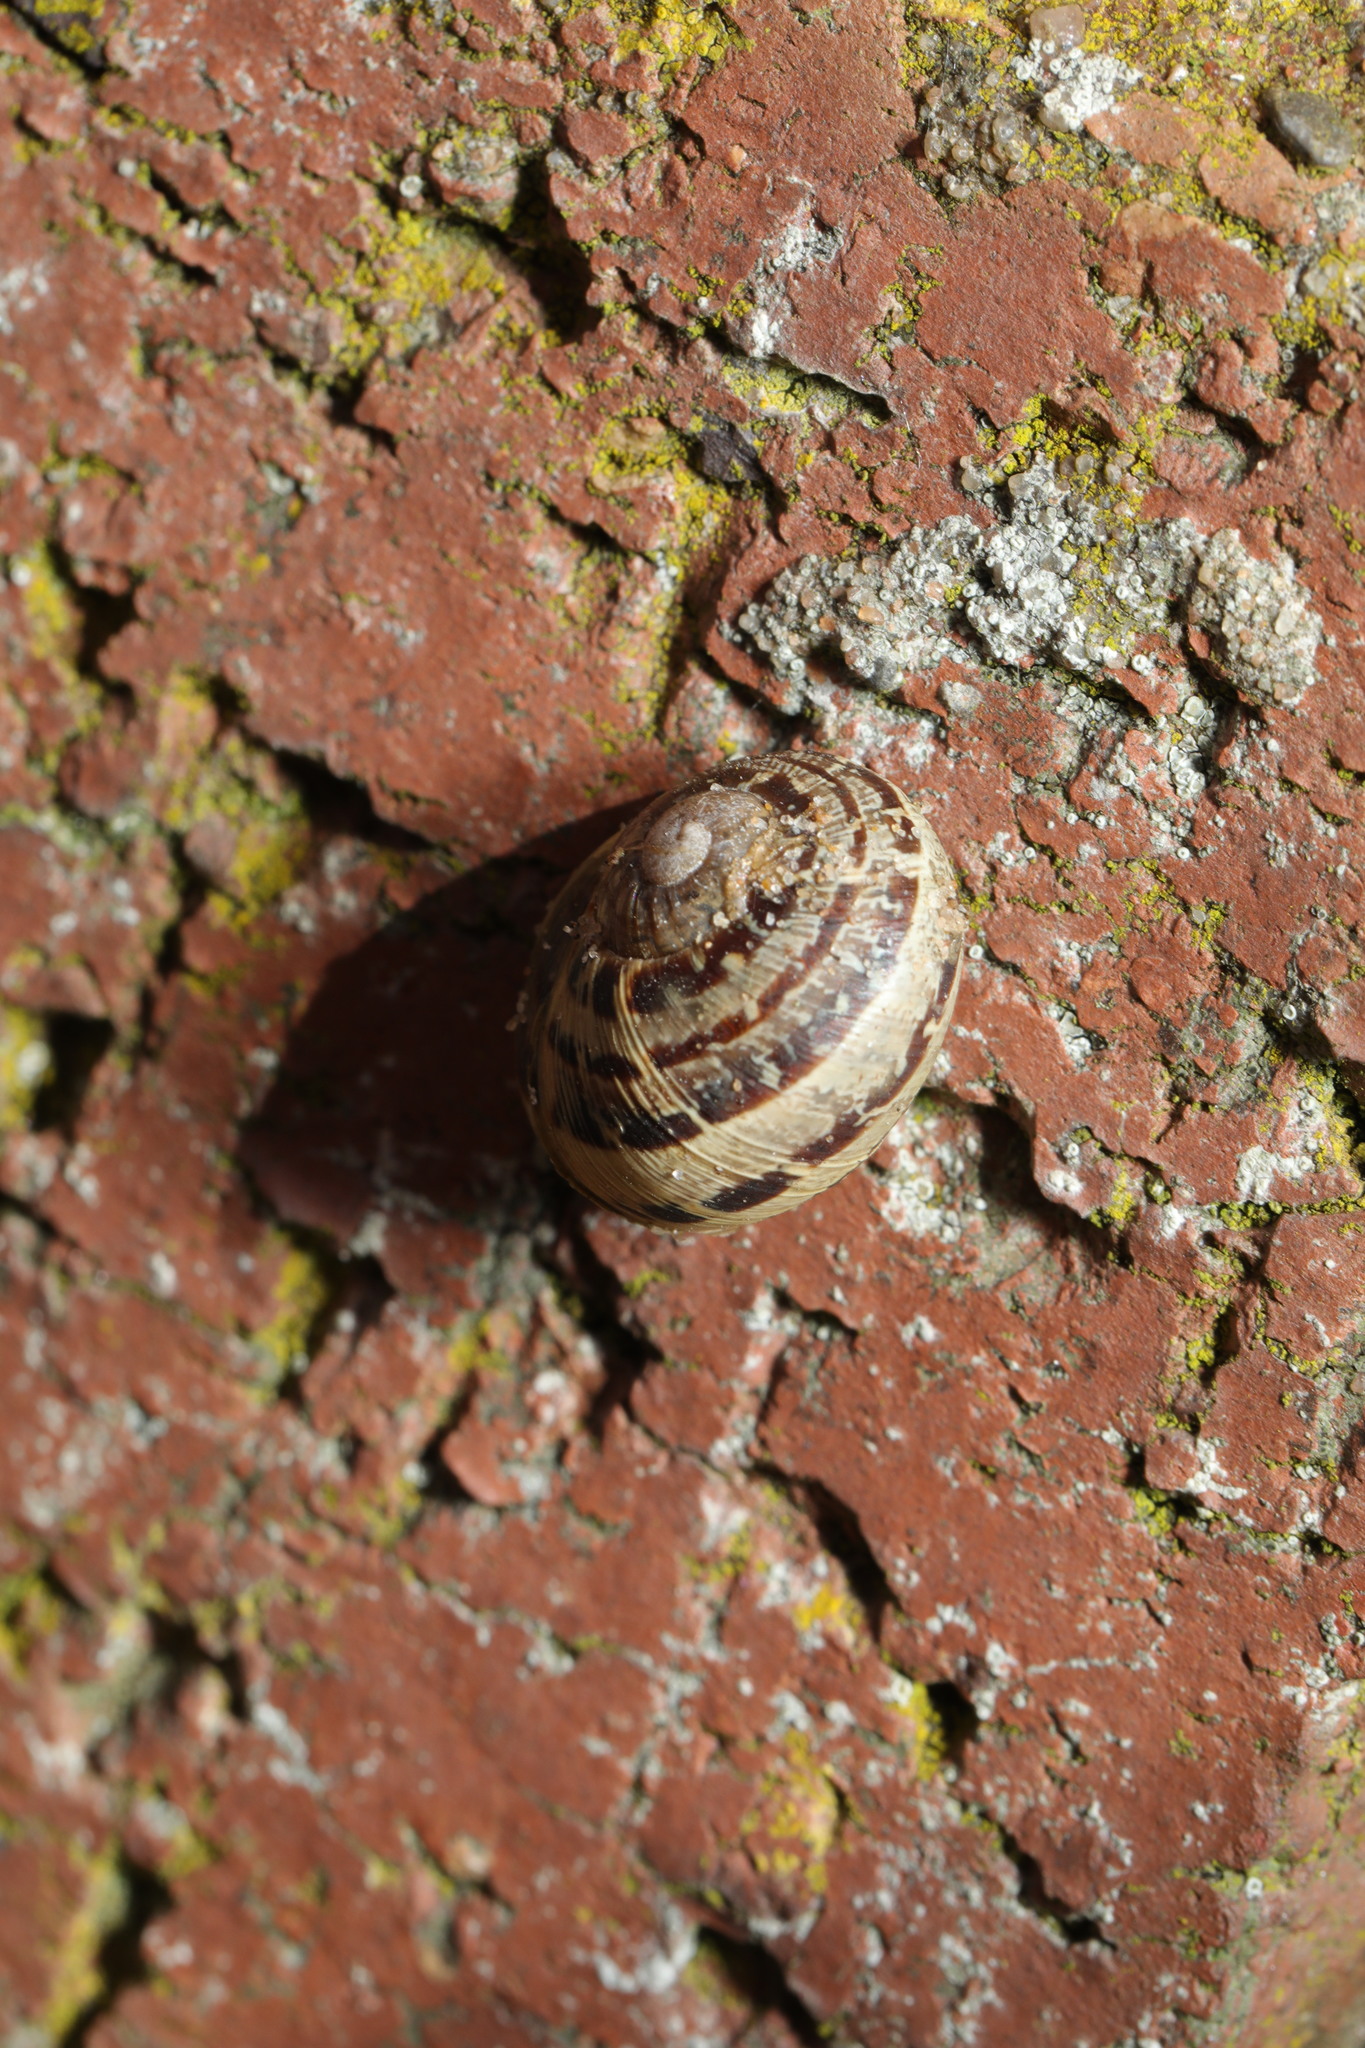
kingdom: Animalia
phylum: Mollusca
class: Gastropoda
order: Stylommatophora
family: Helicidae
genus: Cornu
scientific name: Cornu aspersum
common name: Brown garden snail
